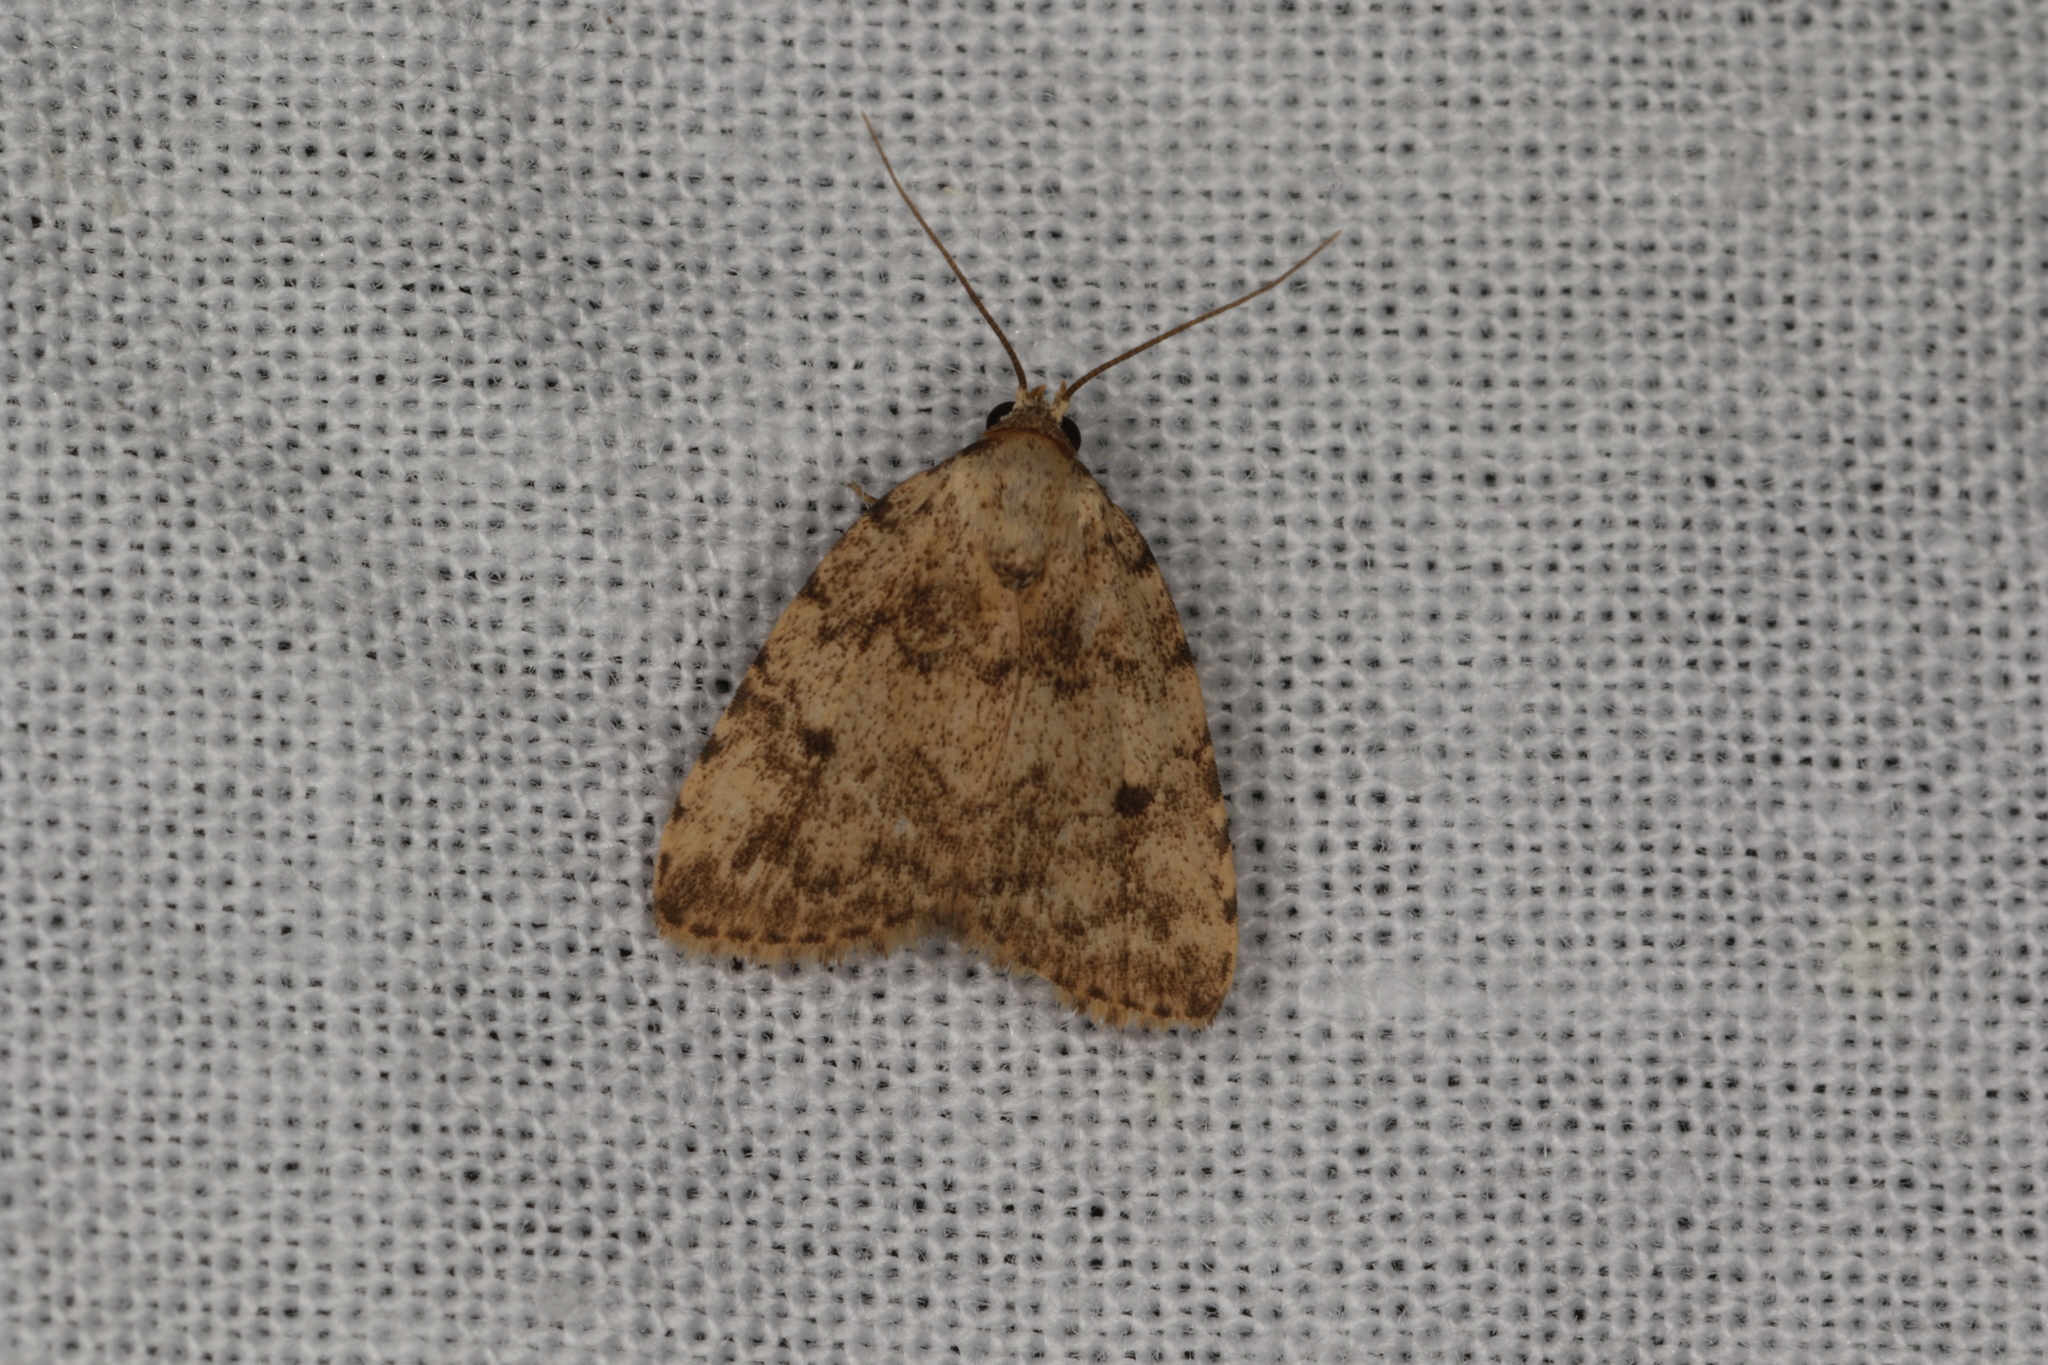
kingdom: Animalia
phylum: Arthropoda
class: Insecta
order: Lepidoptera
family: Erebidae
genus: Tolpia
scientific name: Tolpia conscitulana
